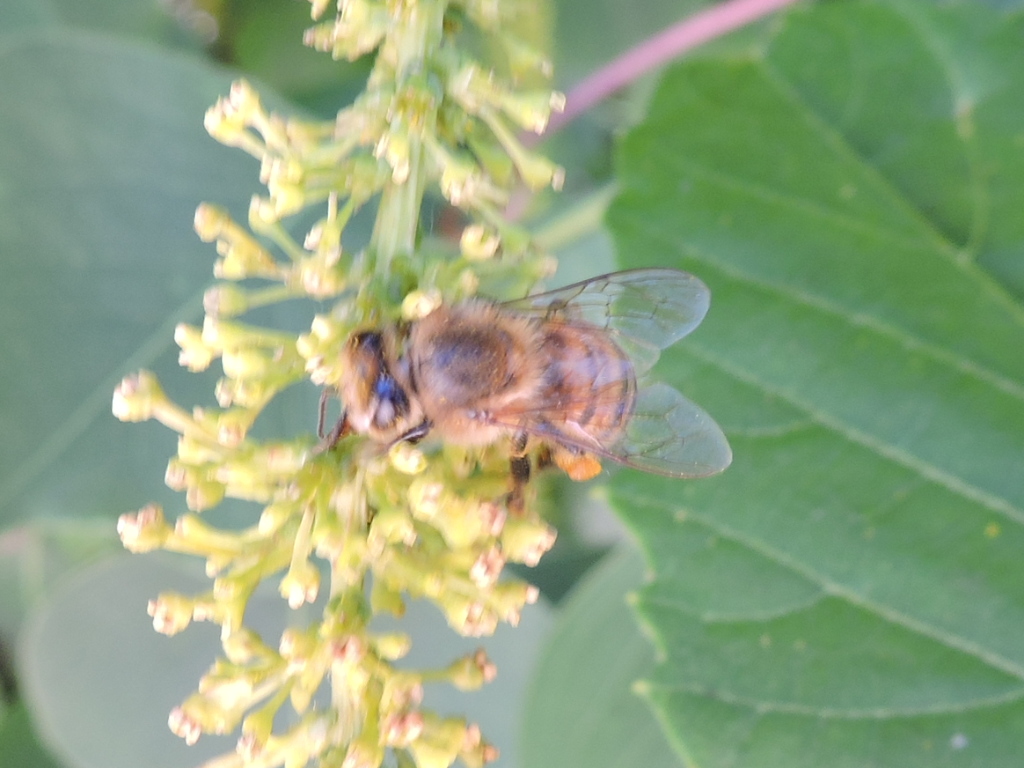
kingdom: Animalia
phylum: Arthropoda
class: Insecta
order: Hymenoptera
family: Apidae
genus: Apis
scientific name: Apis mellifera
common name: Honey bee
